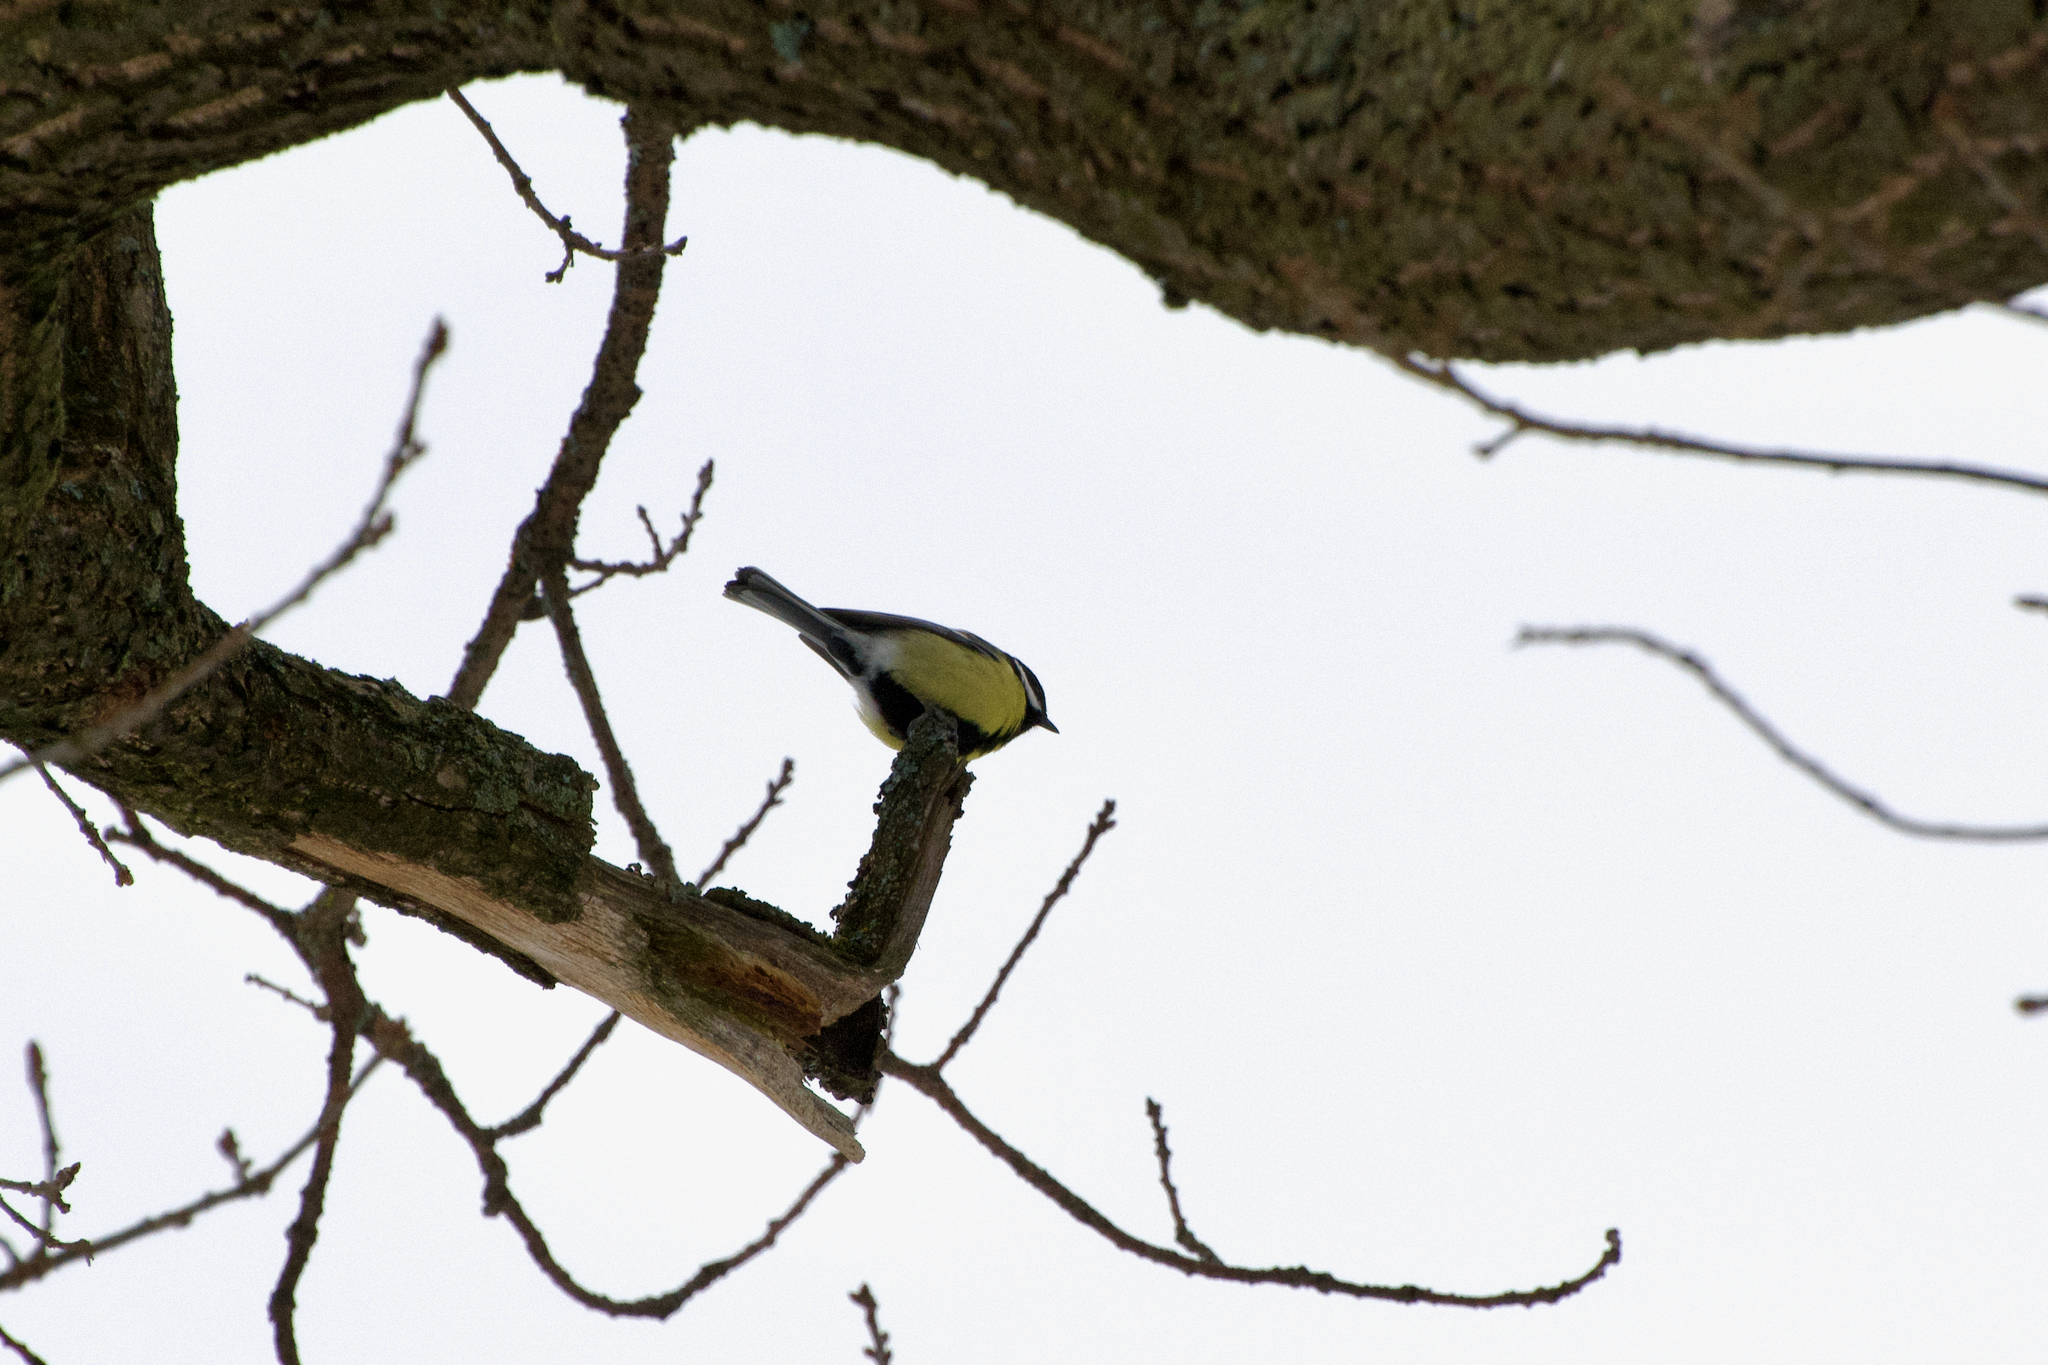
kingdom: Animalia
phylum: Chordata
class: Aves
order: Passeriformes
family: Paridae
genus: Parus
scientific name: Parus major
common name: Great tit
